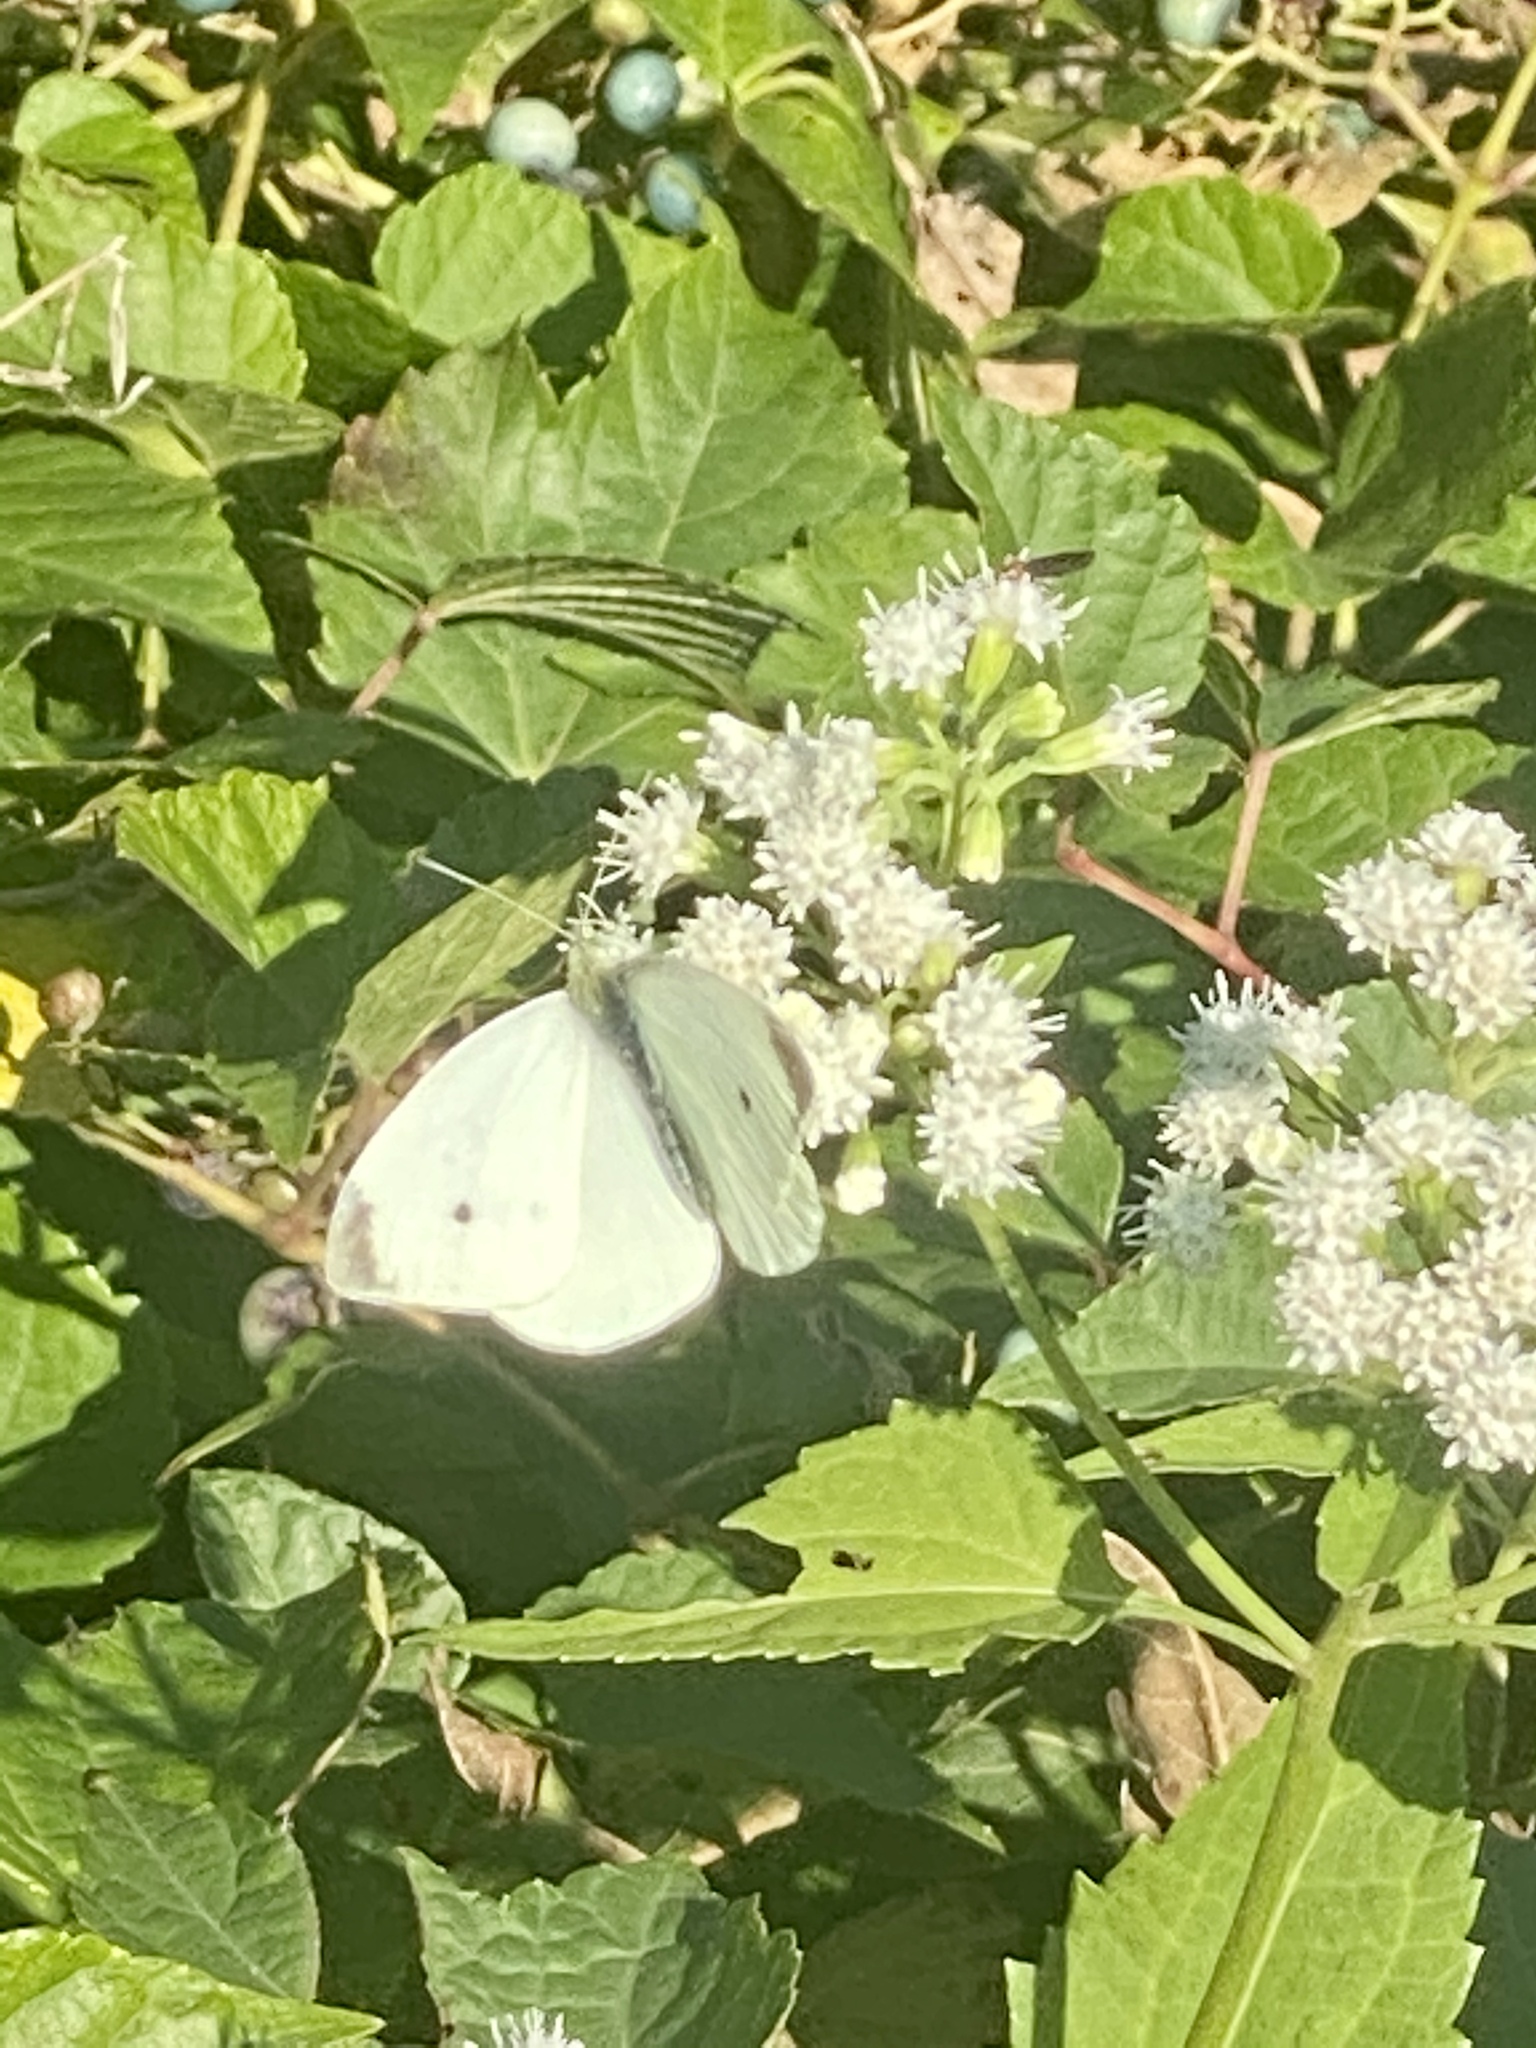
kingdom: Animalia
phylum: Arthropoda
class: Insecta
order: Lepidoptera
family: Pieridae
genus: Pieris
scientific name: Pieris rapae
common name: Small white
